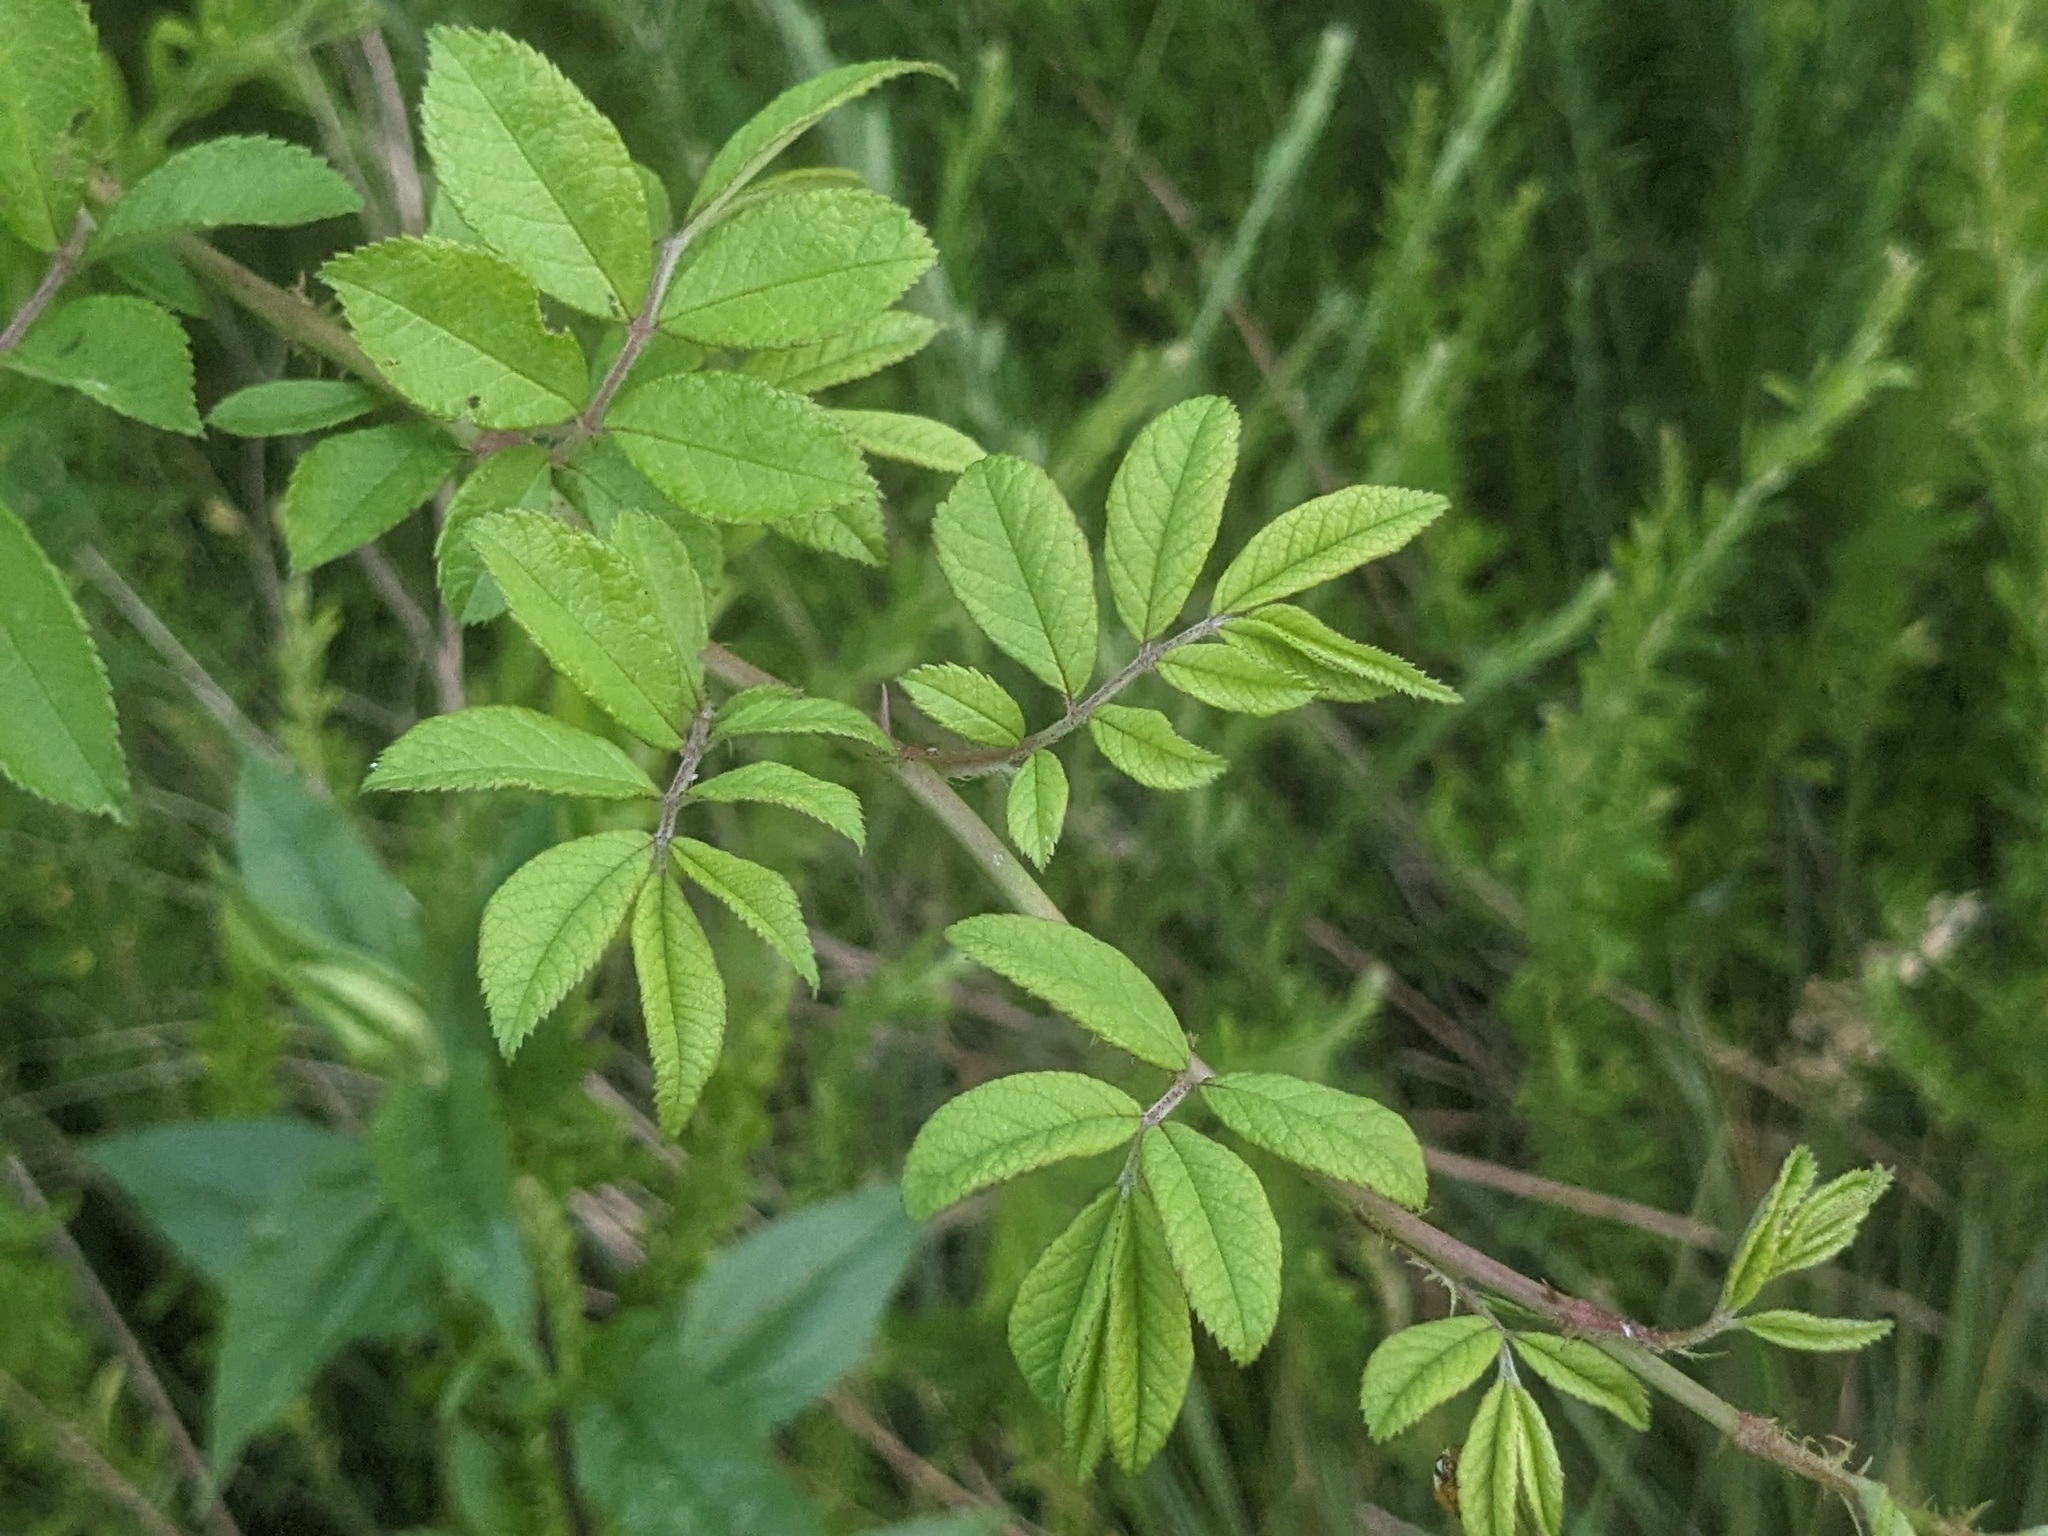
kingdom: Plantae
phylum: Tracheophyta
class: Magnoliopsida
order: Rosales
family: Rosaceae
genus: Rosa
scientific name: Rosa multiflora
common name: Multiflora rose
